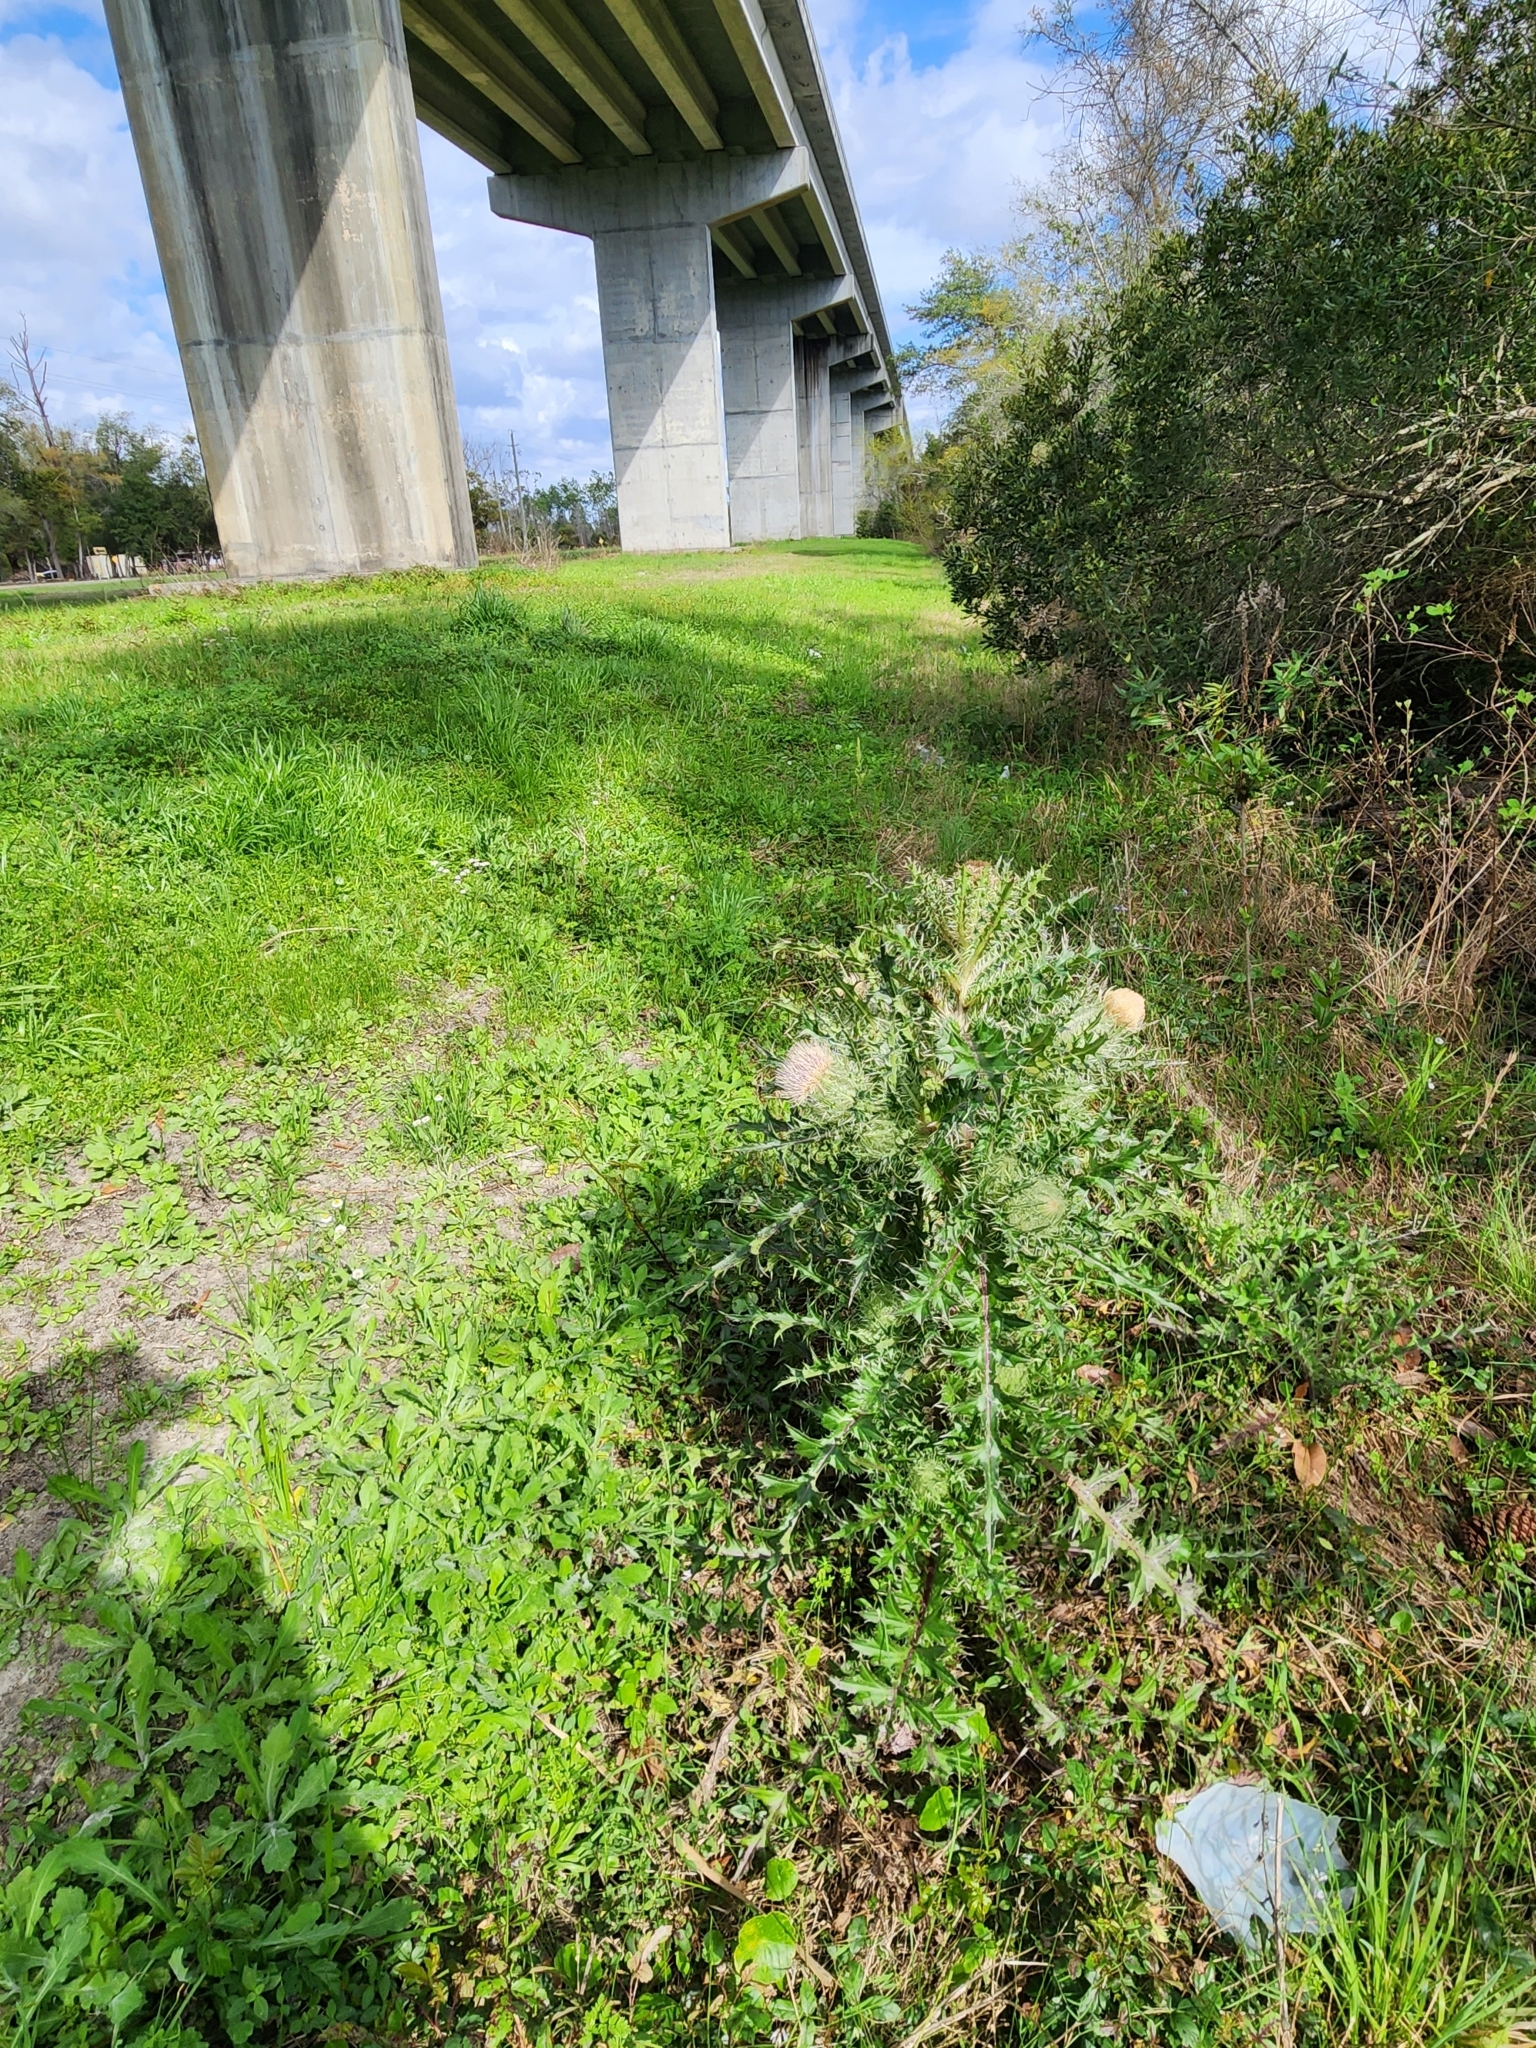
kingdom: Plantae
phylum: Tracheophyta
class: Magnoliopsida
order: Asterales
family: Asteraceae
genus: Cirsium
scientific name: Cirsium horridulum
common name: Bristly thistle
